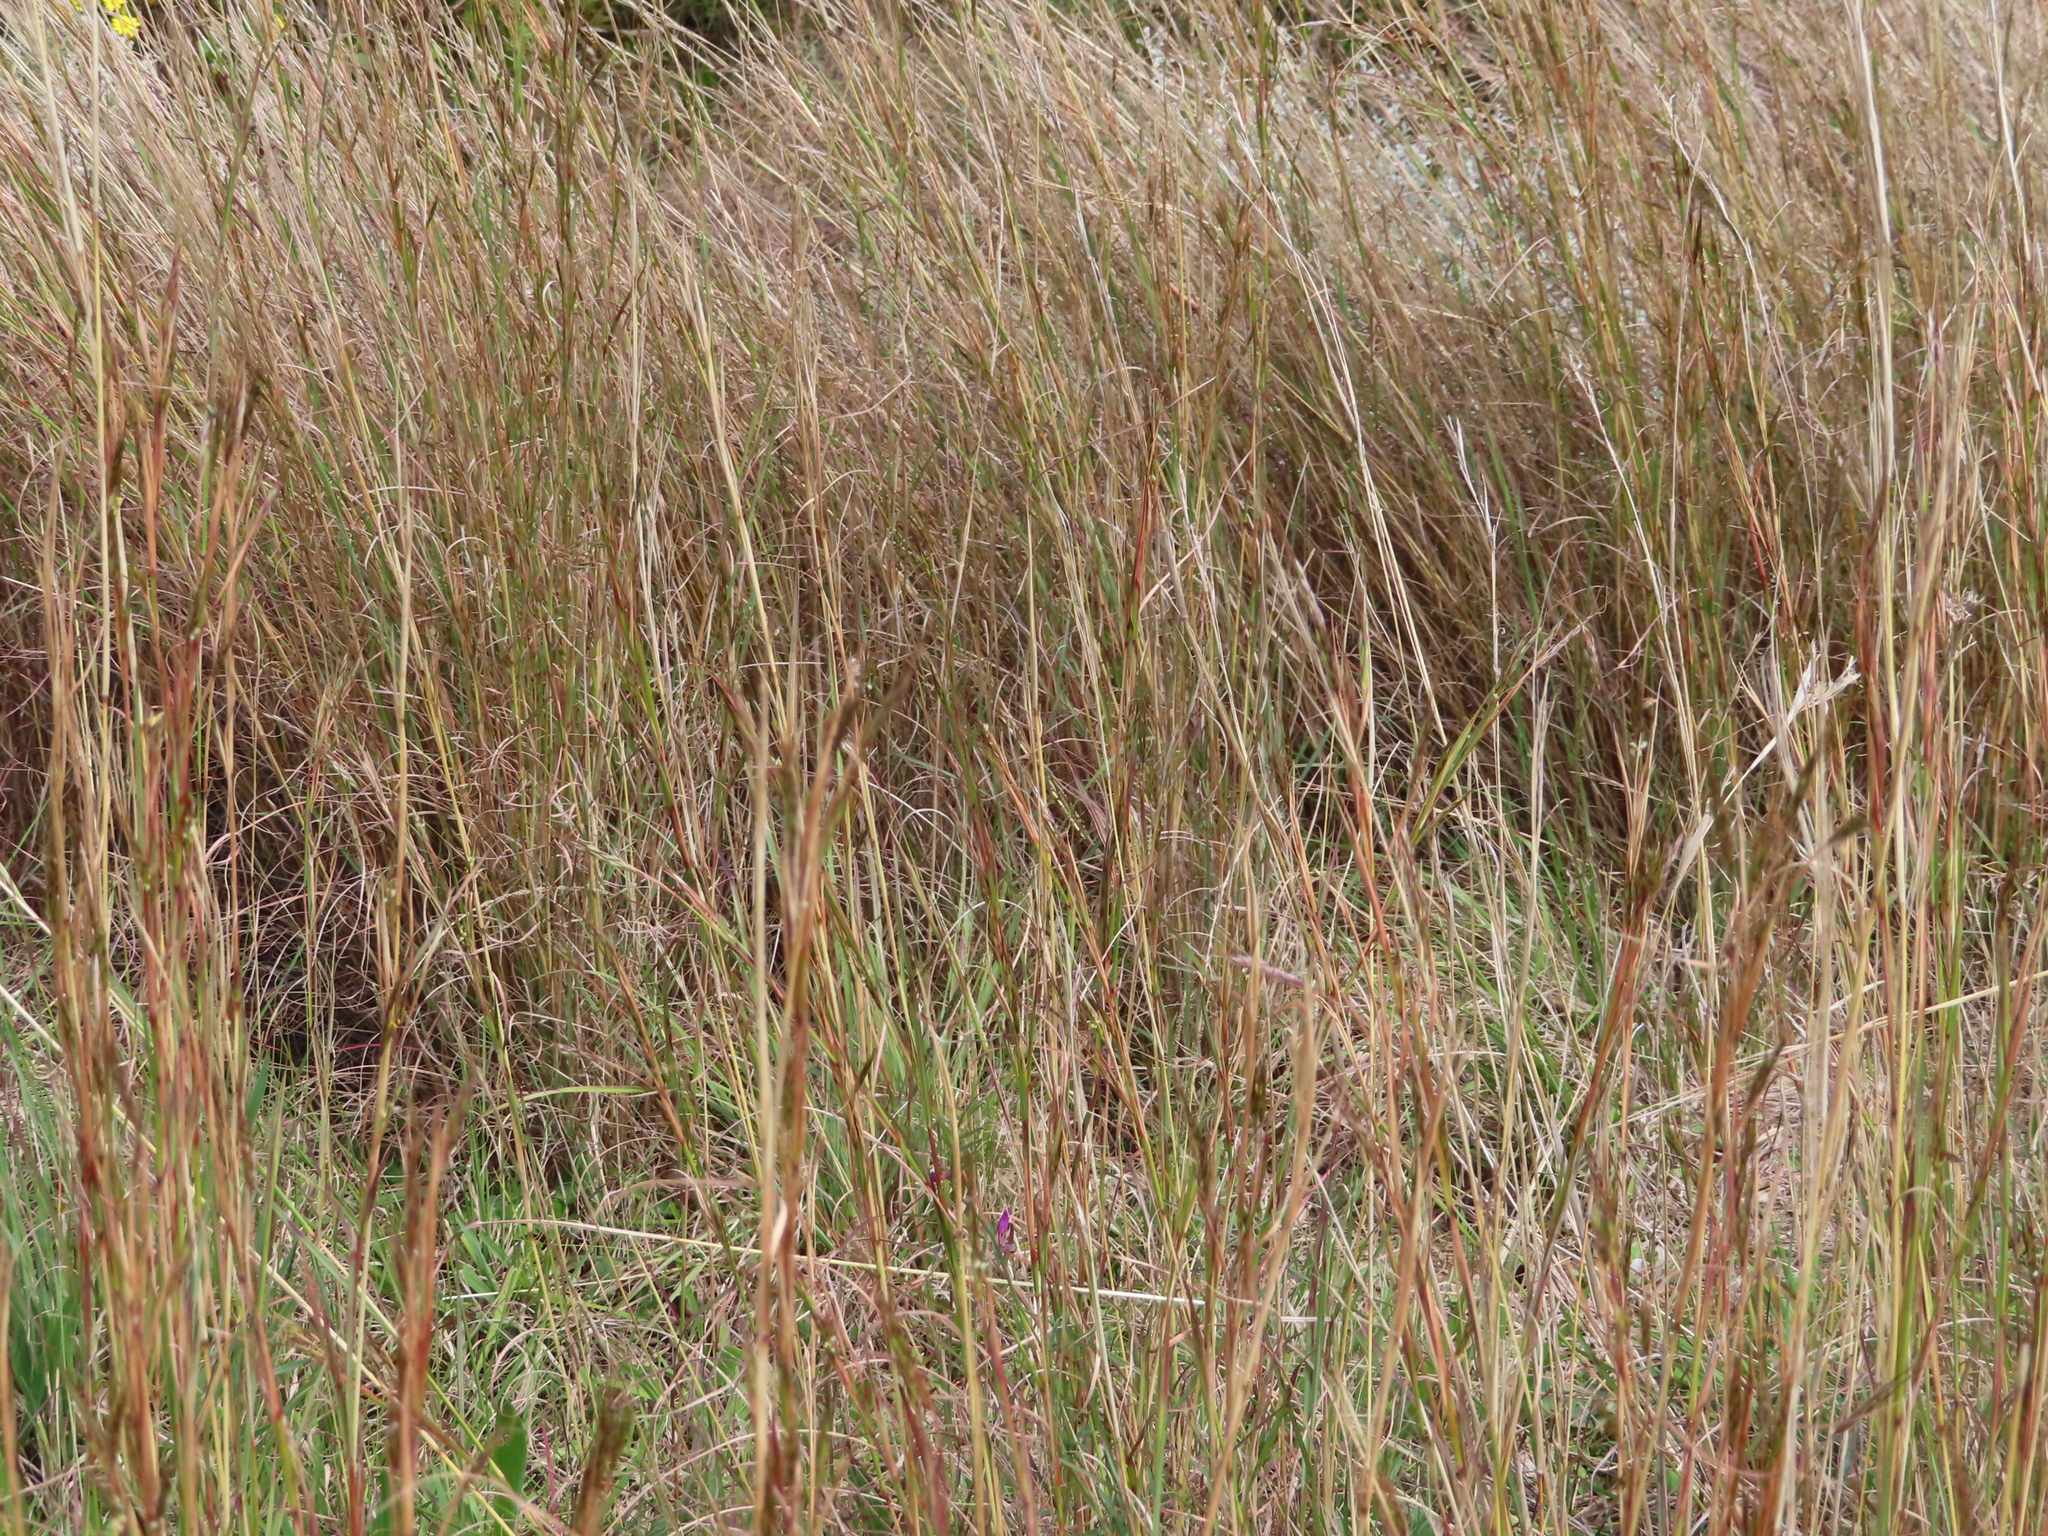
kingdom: Plantae
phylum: Tracheophyta
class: Liliopsida
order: Poales
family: Poaceae
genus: Hyparrhenia
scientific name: Hyparrhenia hirta
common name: Thatching grass
